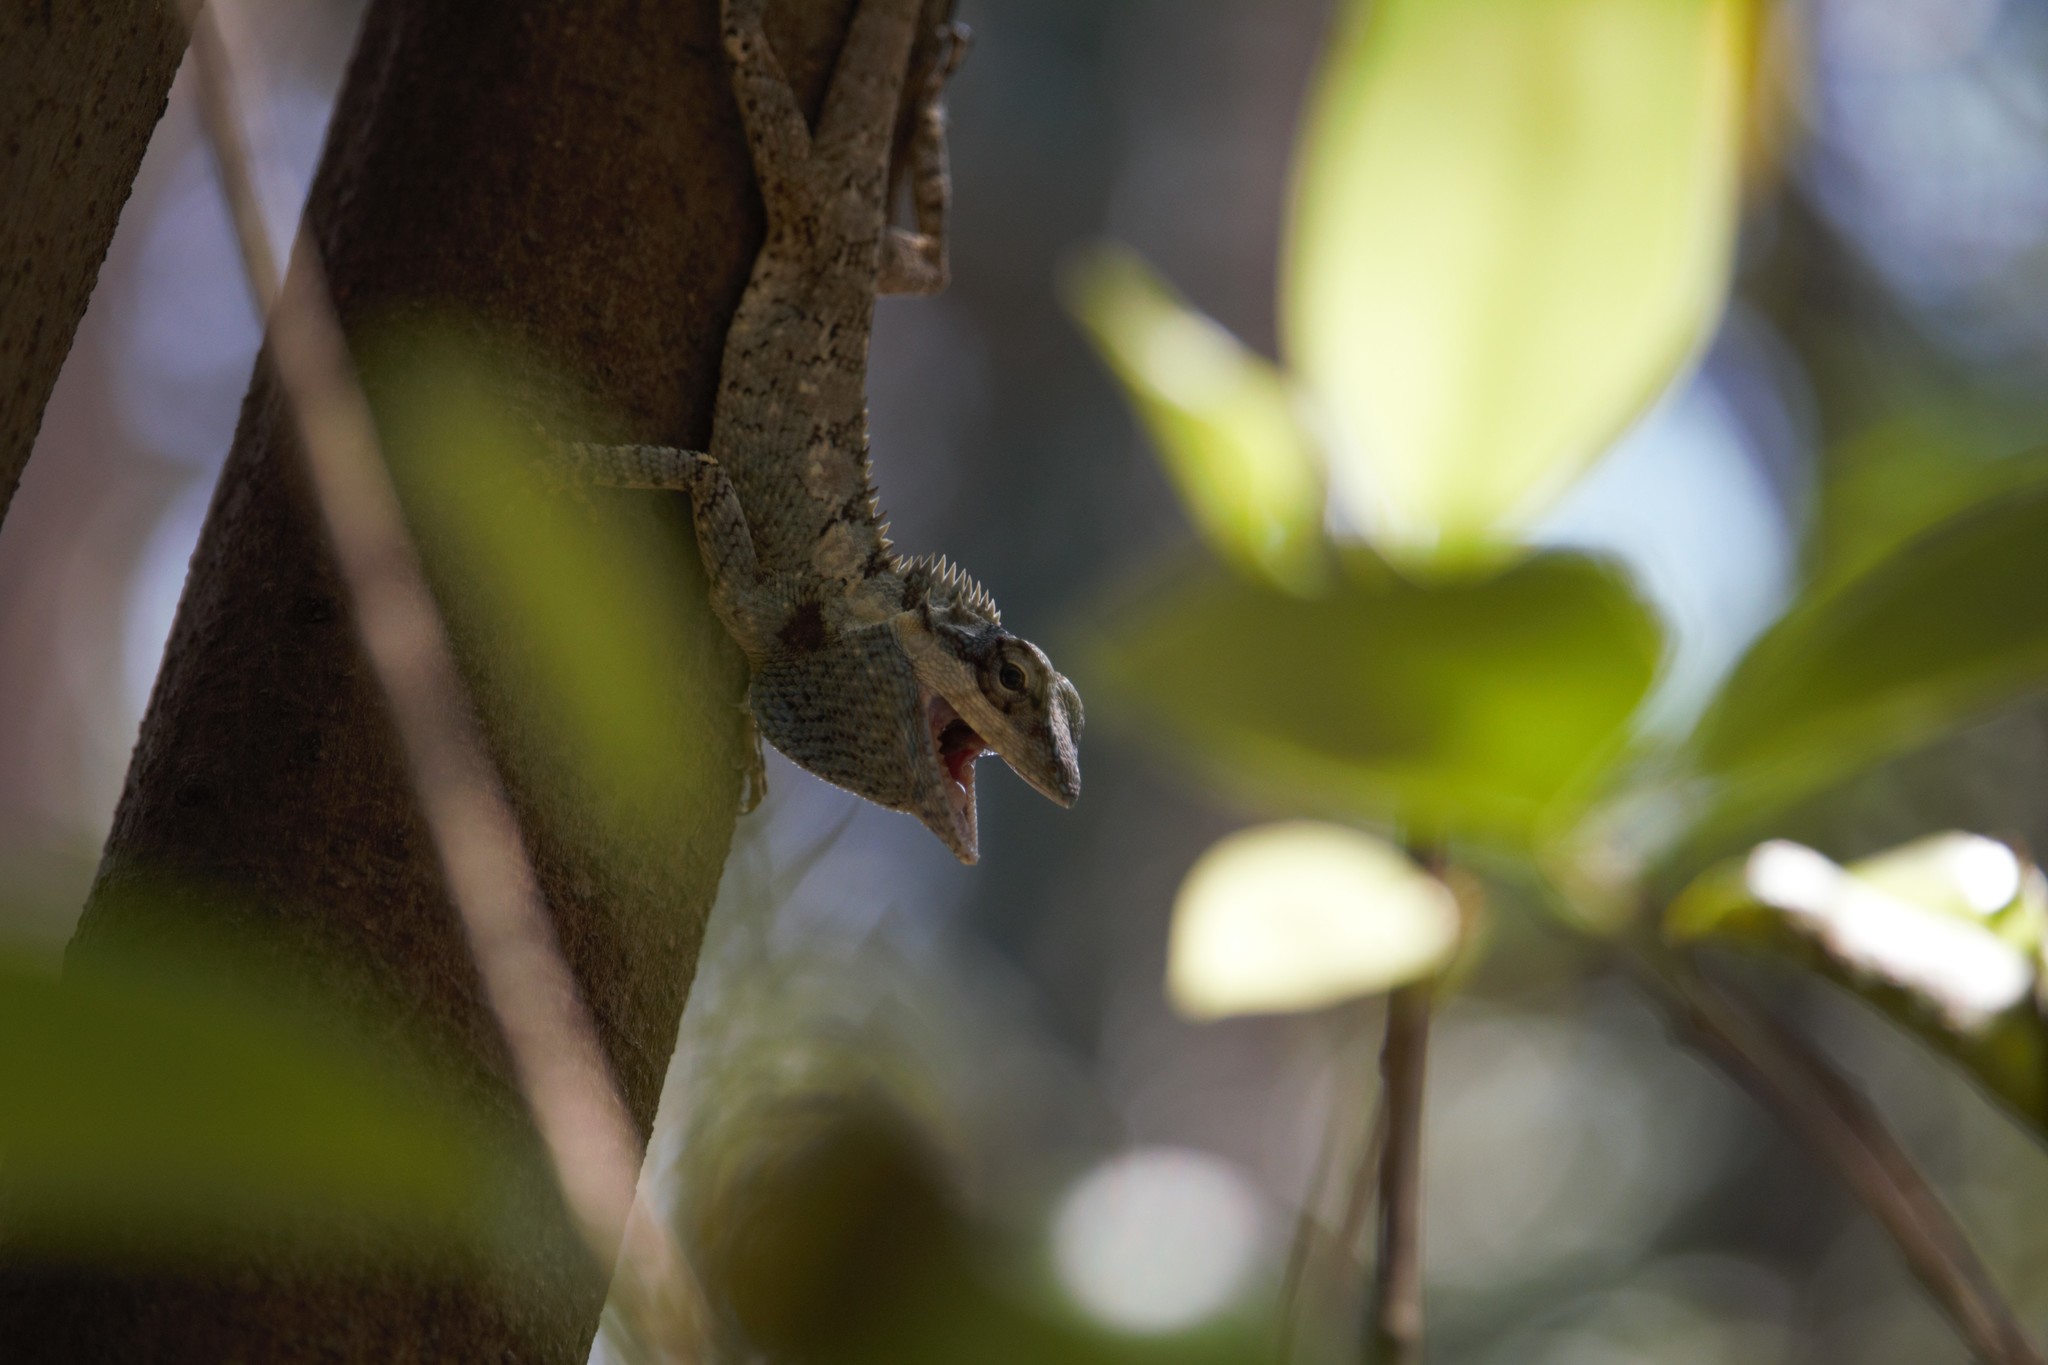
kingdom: Animalia
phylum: Chordata
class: Squamata
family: Agamidae
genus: Calotes
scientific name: Calotes goetzi
